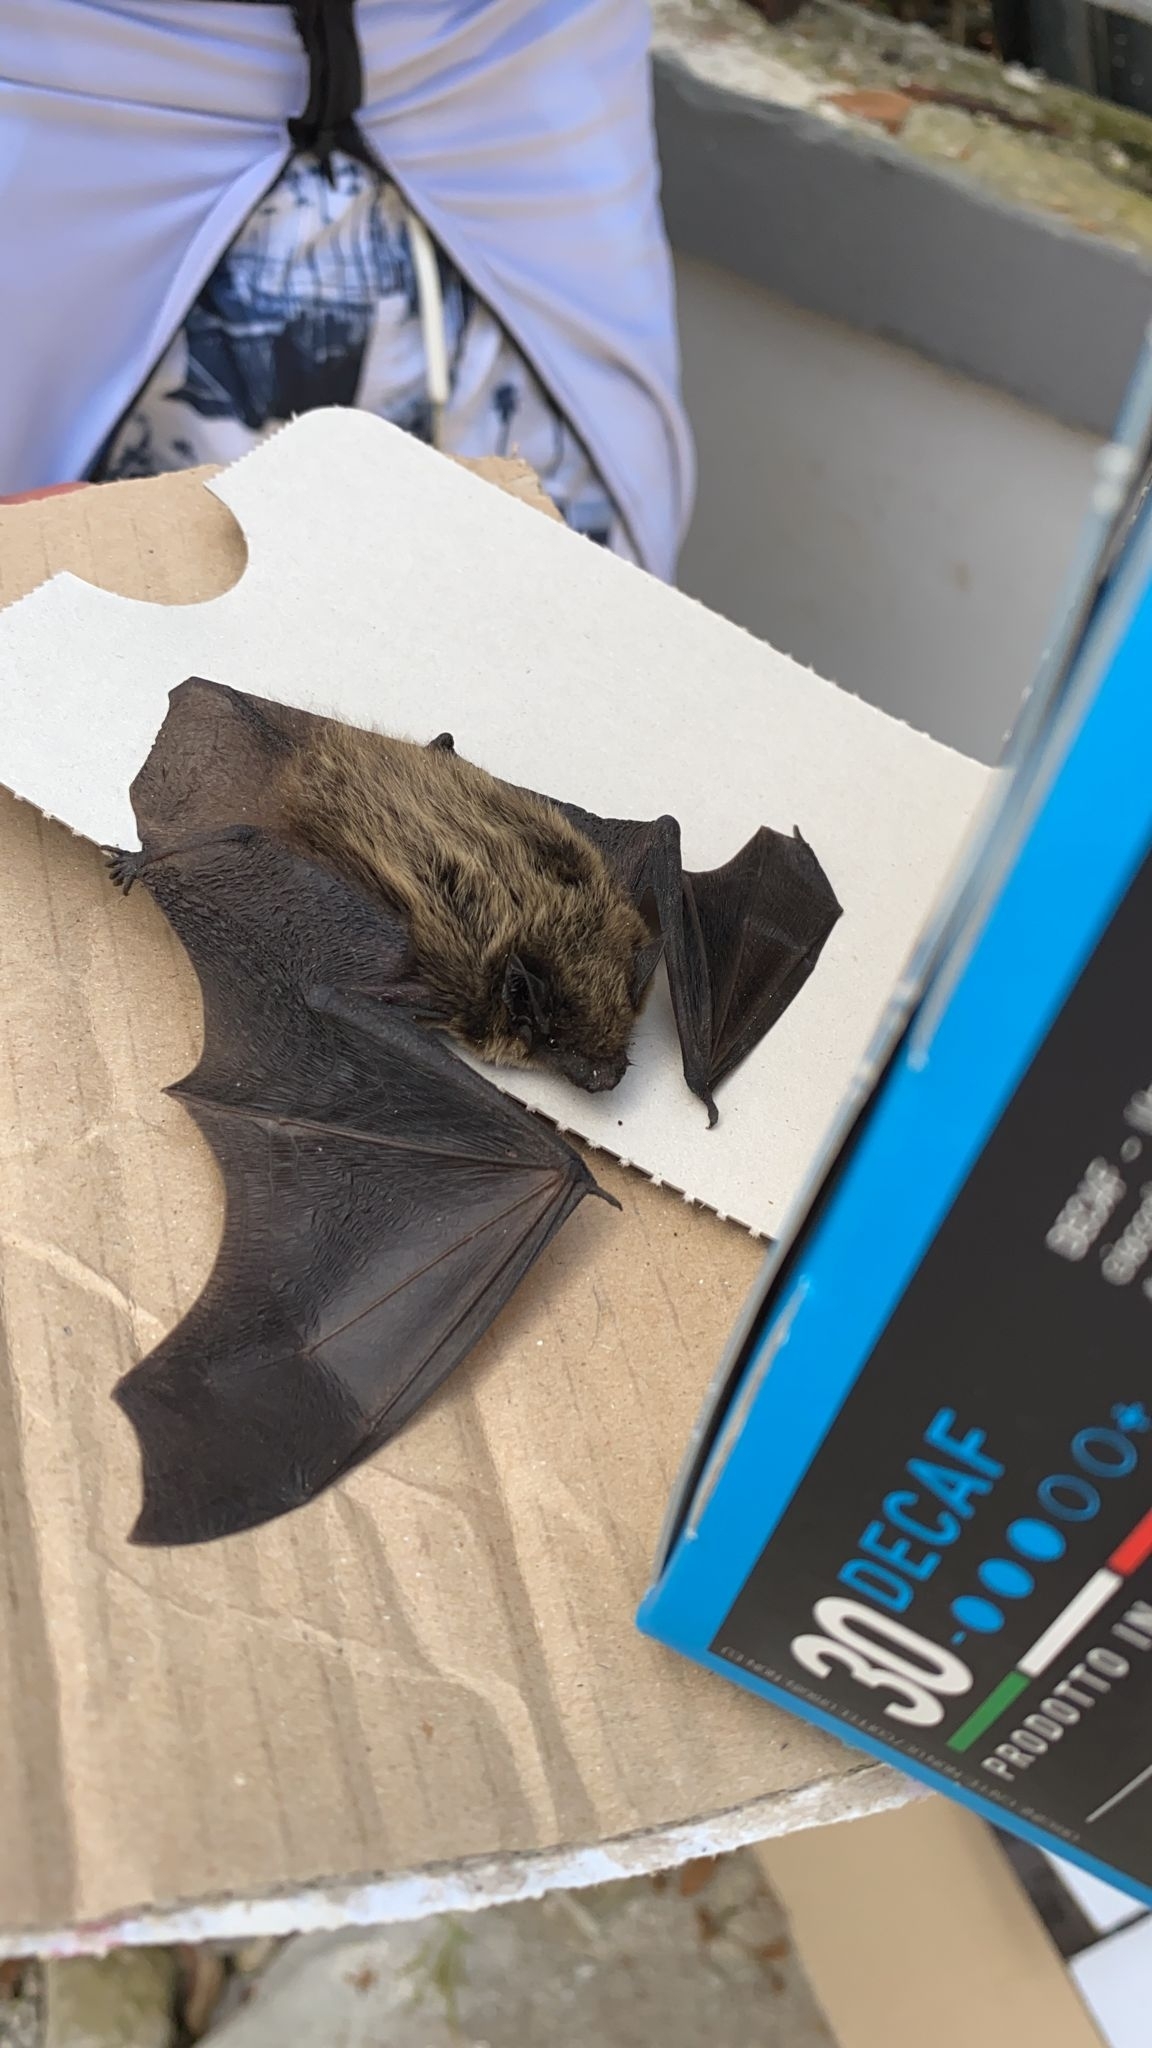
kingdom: Animalia
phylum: Chordata
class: Mammalia
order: Chiroptera
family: Vespertilionidae
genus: Hypsugo
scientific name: Hypsugo savii
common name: Savi's pipistrelle
